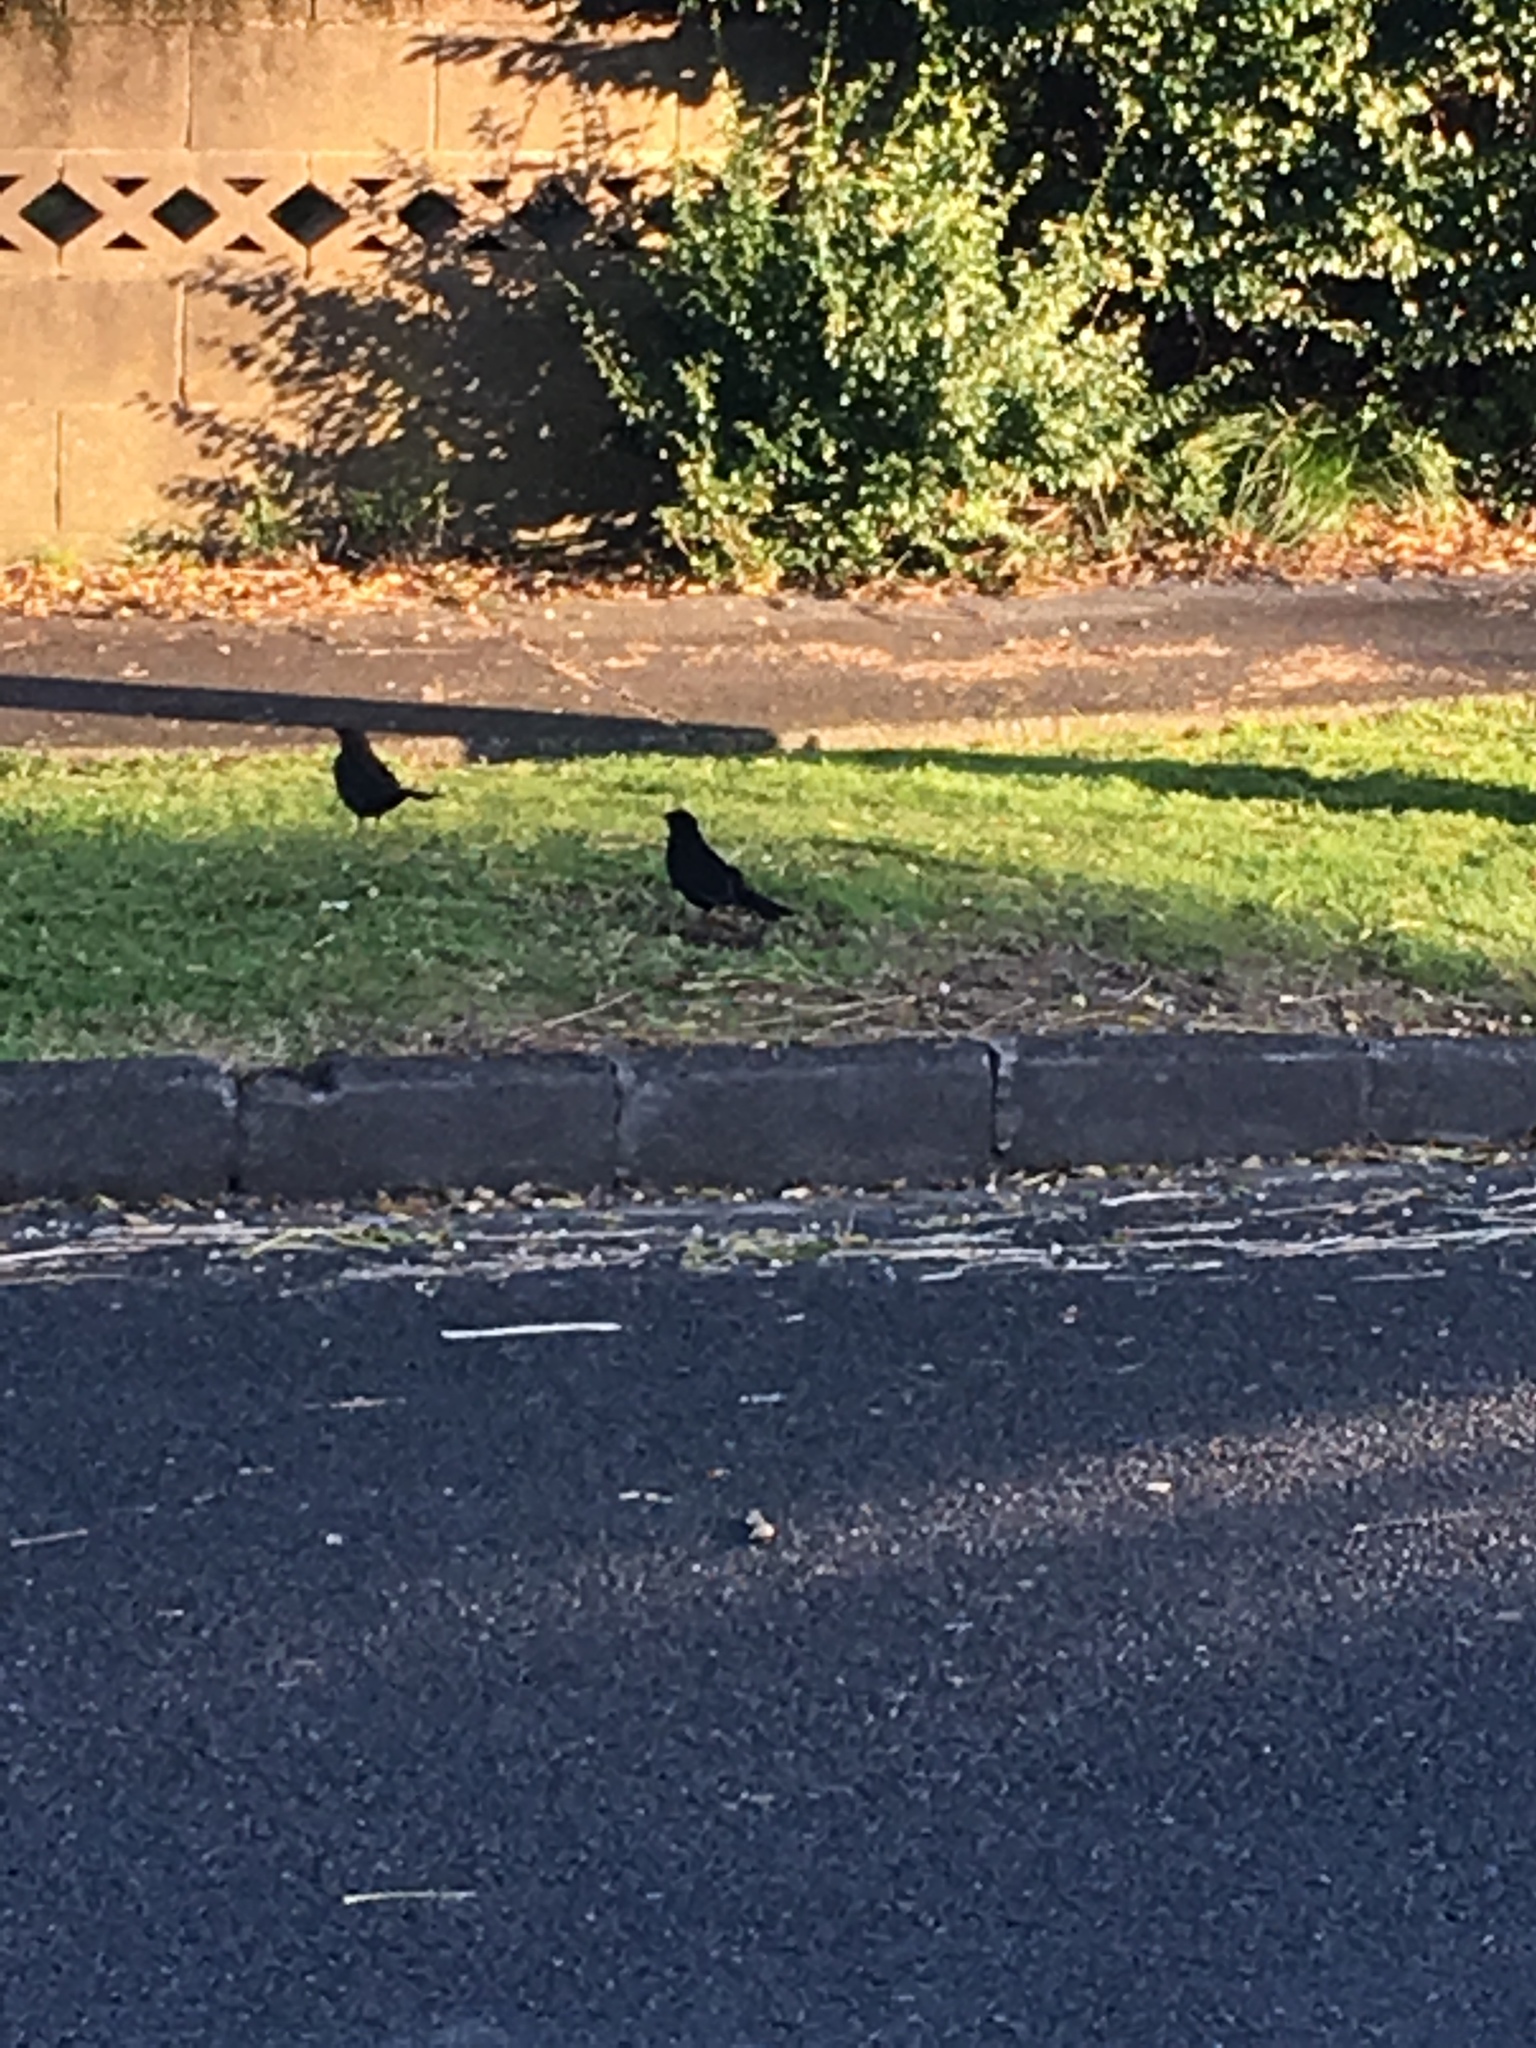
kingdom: Animalia
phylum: Chordata
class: Aves
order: Passeriformes
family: Turdidae
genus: Turdus
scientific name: Turdus merula
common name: Common blackbird
